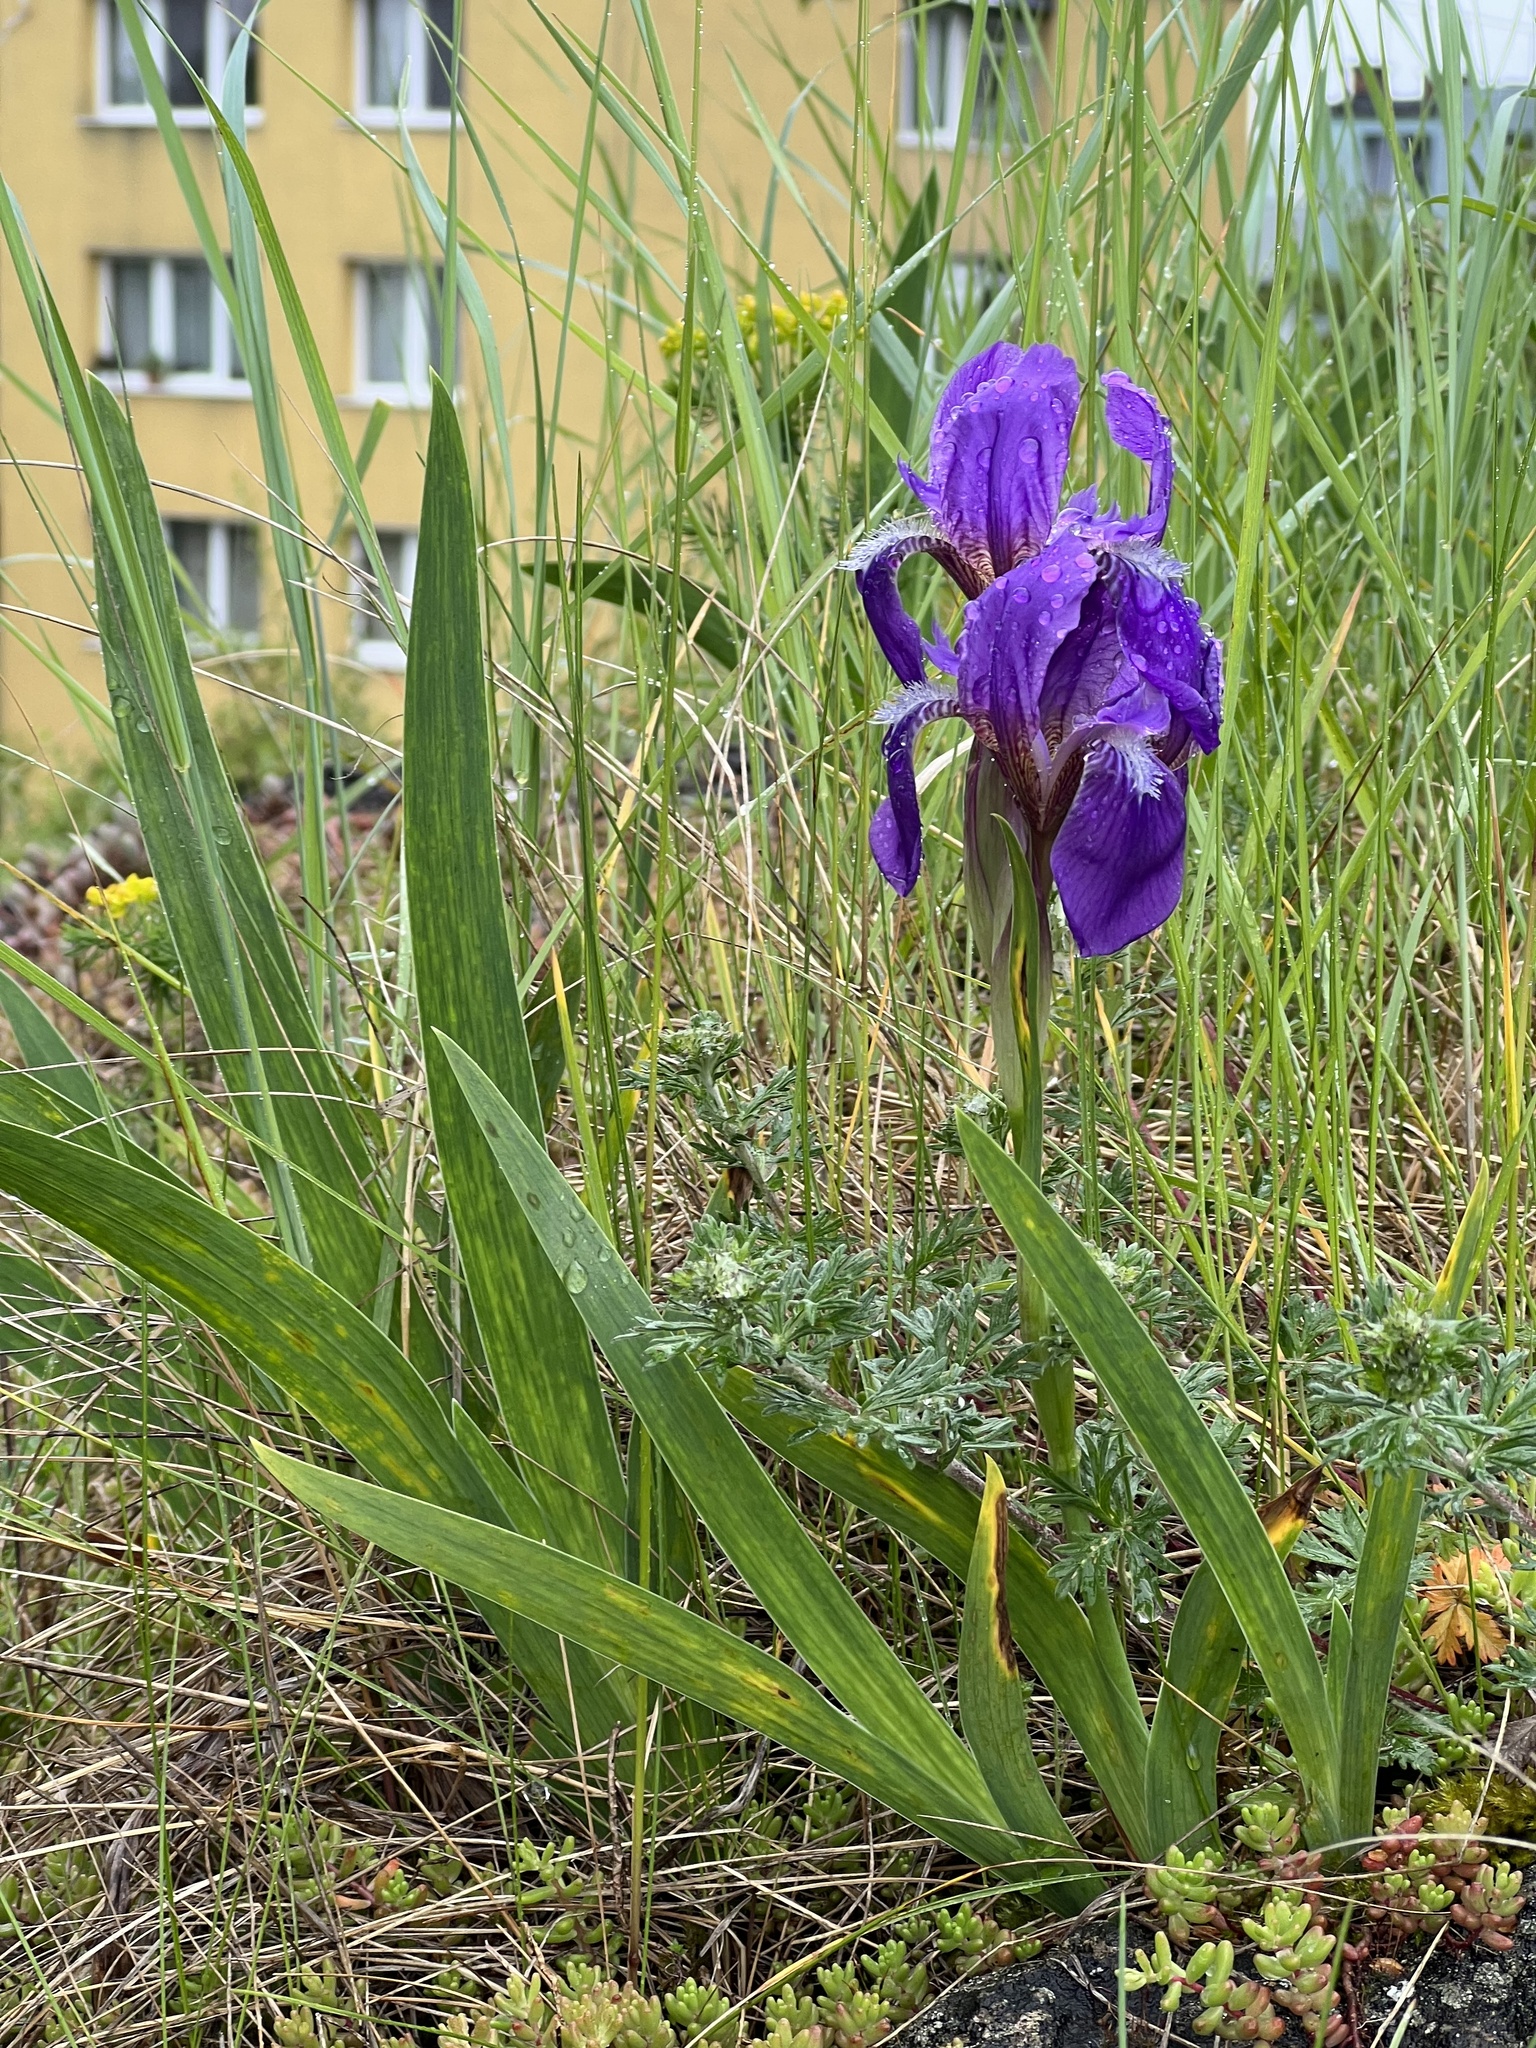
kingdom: Plantae
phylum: Tracheophyta
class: Liliopsida
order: Asparagales
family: Iridaceae
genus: Iris
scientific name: Iris aphylla
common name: Stool iris
